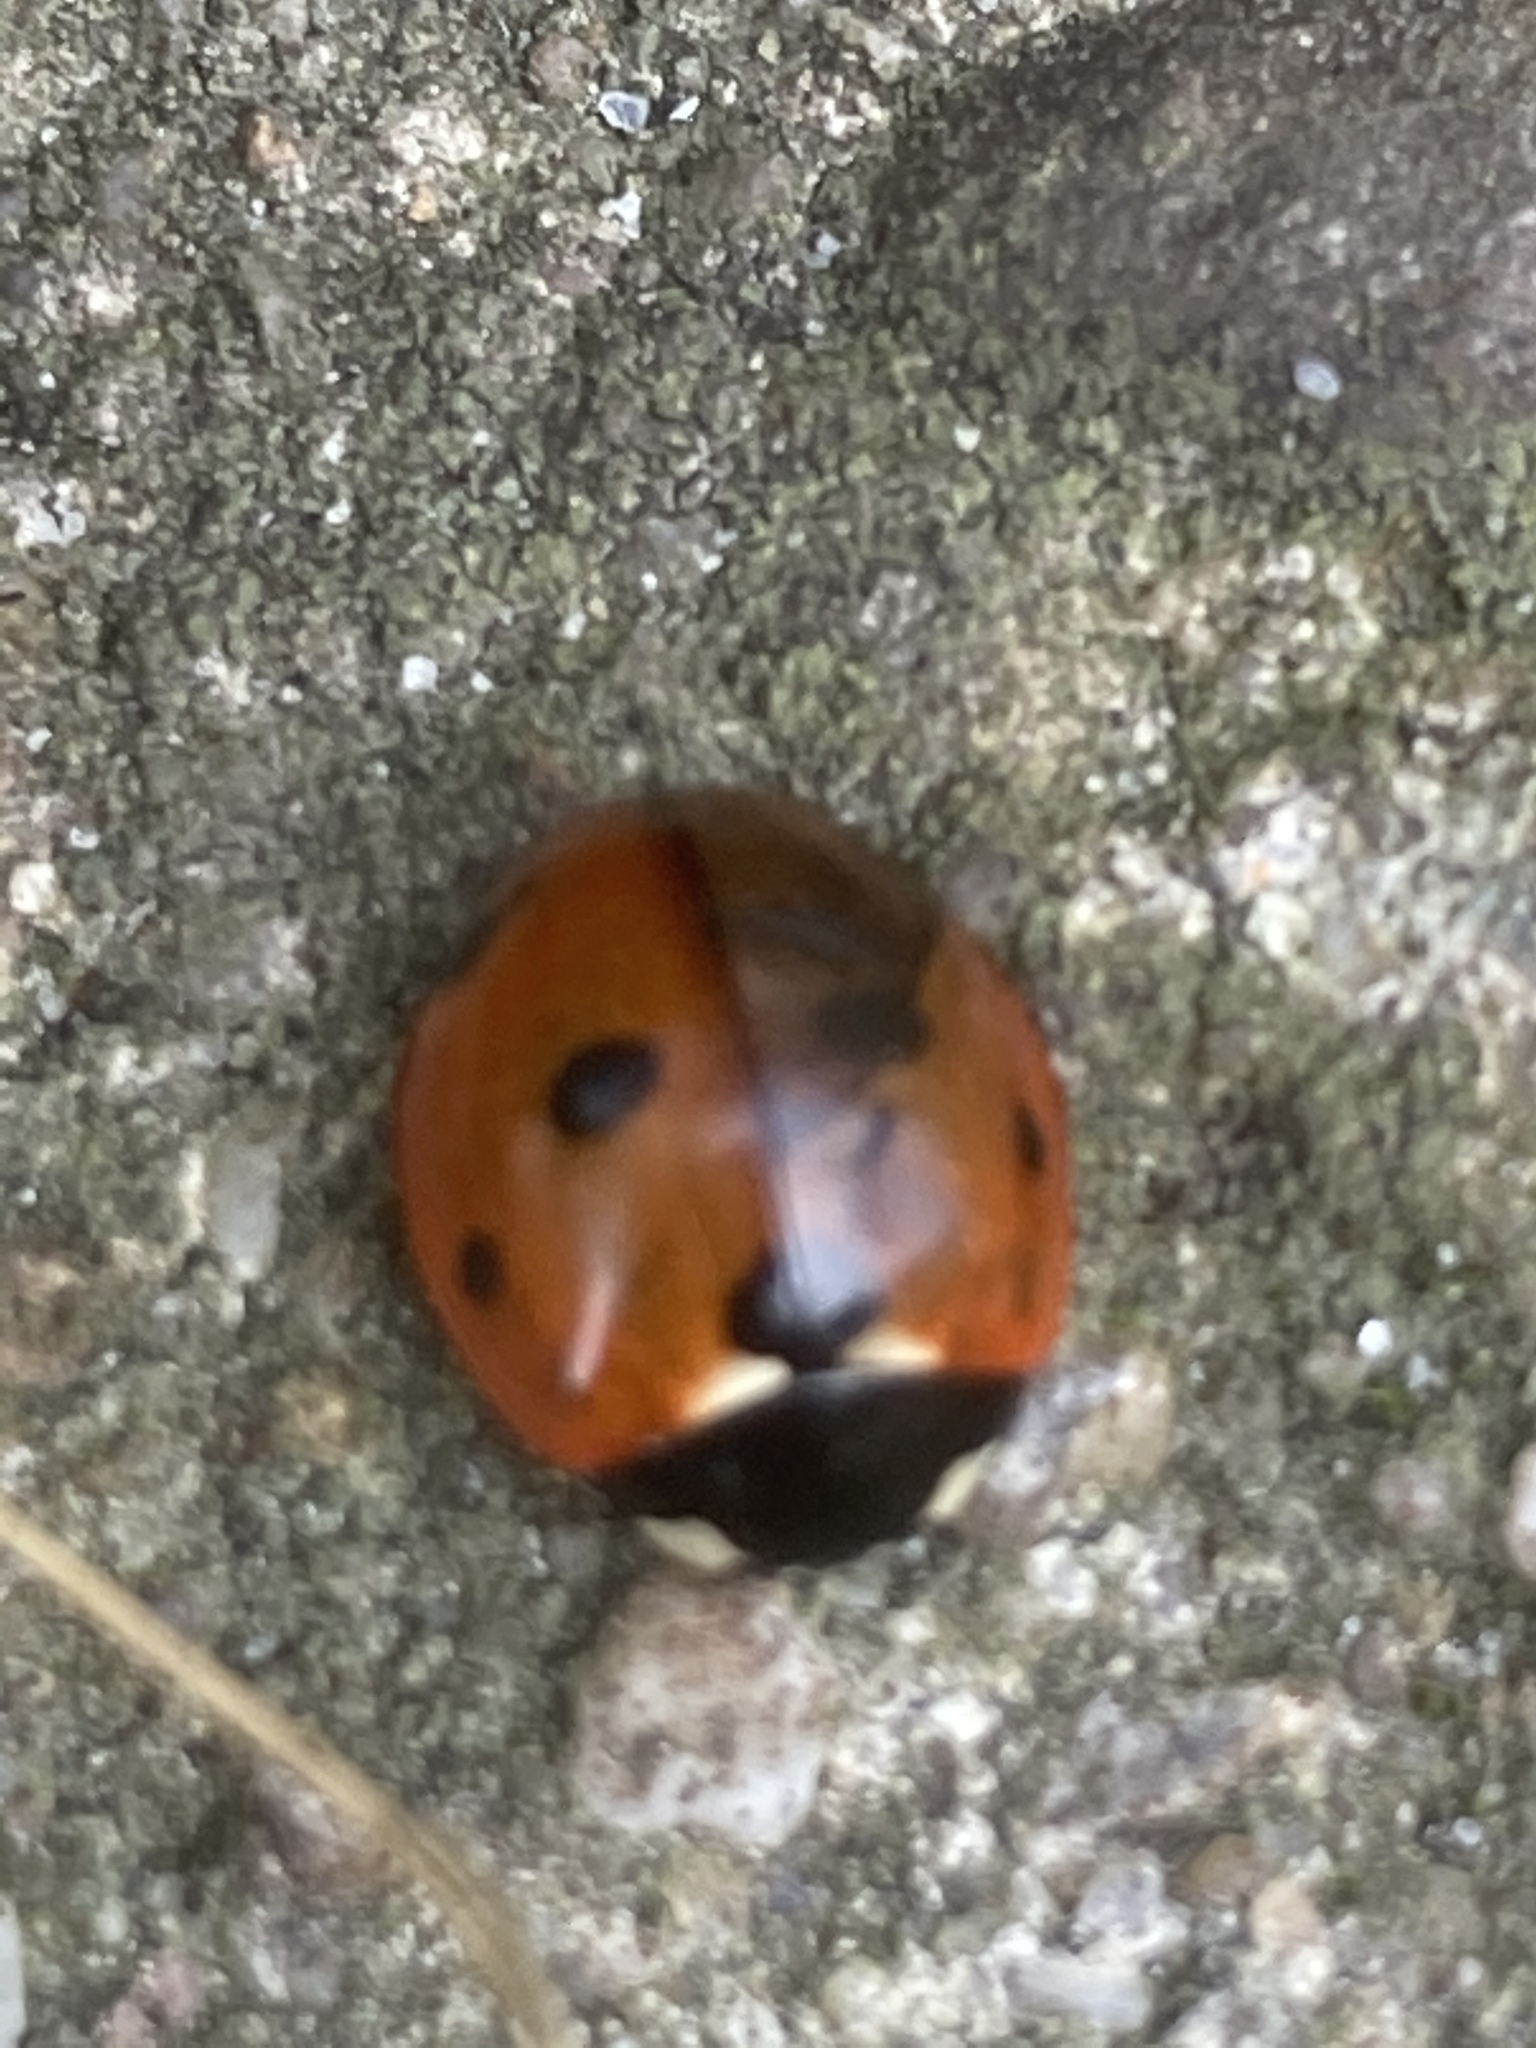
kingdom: Animalia
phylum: Arthropoda
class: Insecta
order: Coleoptera
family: Coccinellidae
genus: Coccinella
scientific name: Coccinella septempunctata
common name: Sevenspotted lady beetle
